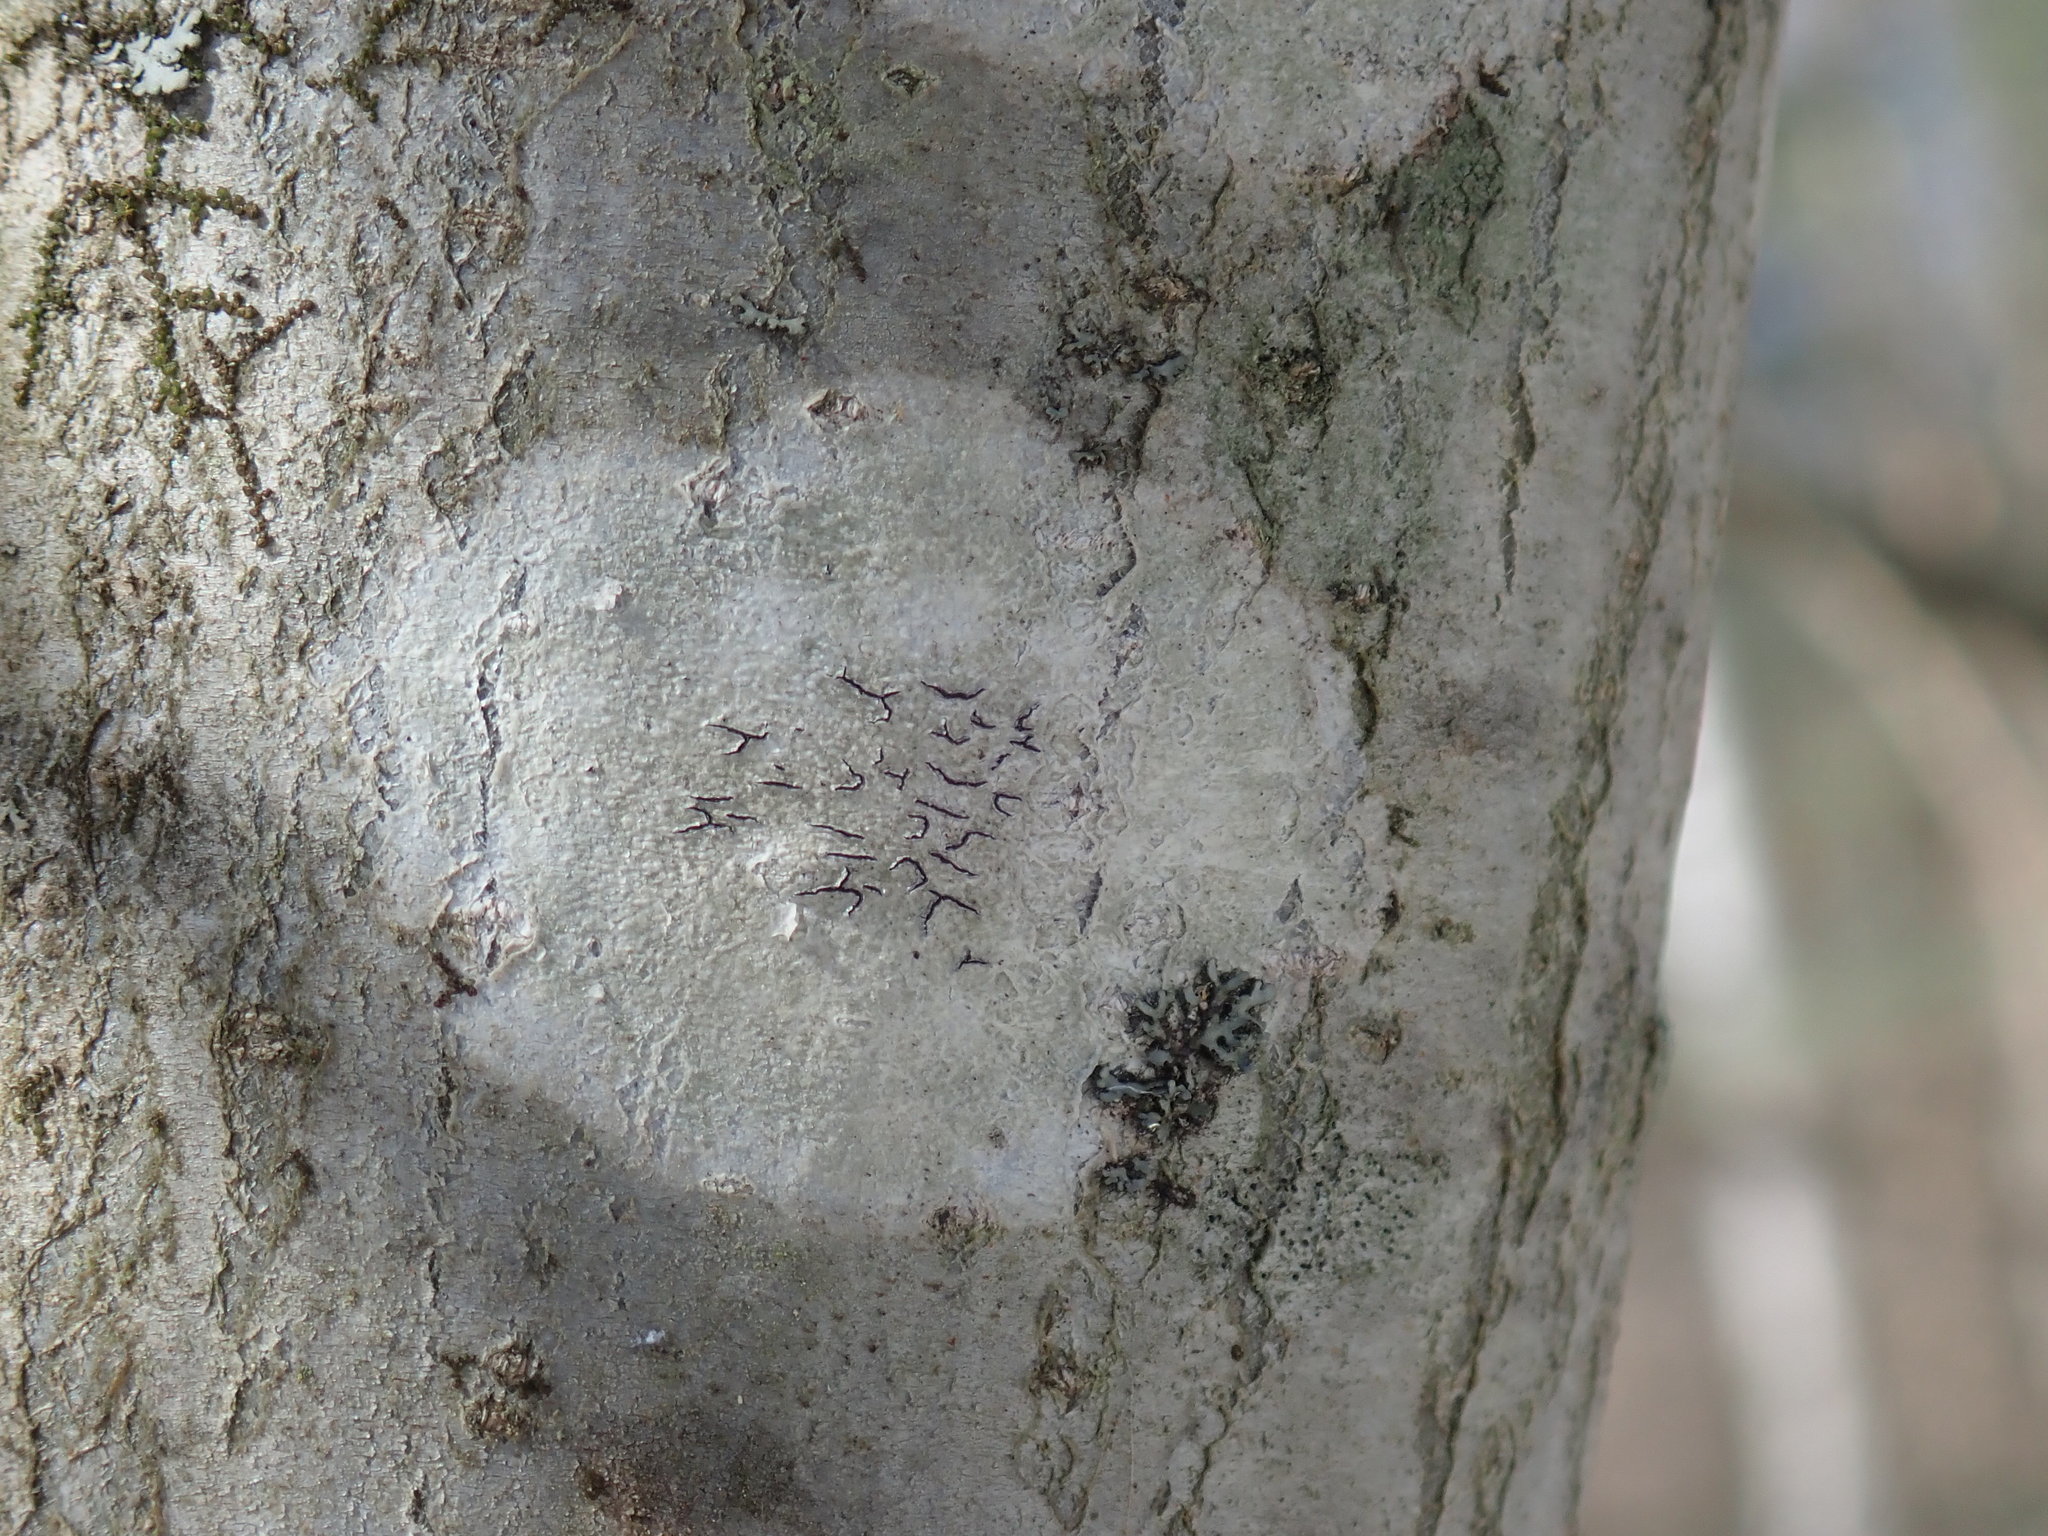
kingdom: Fungi
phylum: Ascomycota
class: Lecanoromycetes
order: Ostropales
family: Graphidaceae
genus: Graphis
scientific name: Graphis scripta
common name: Script lichen
